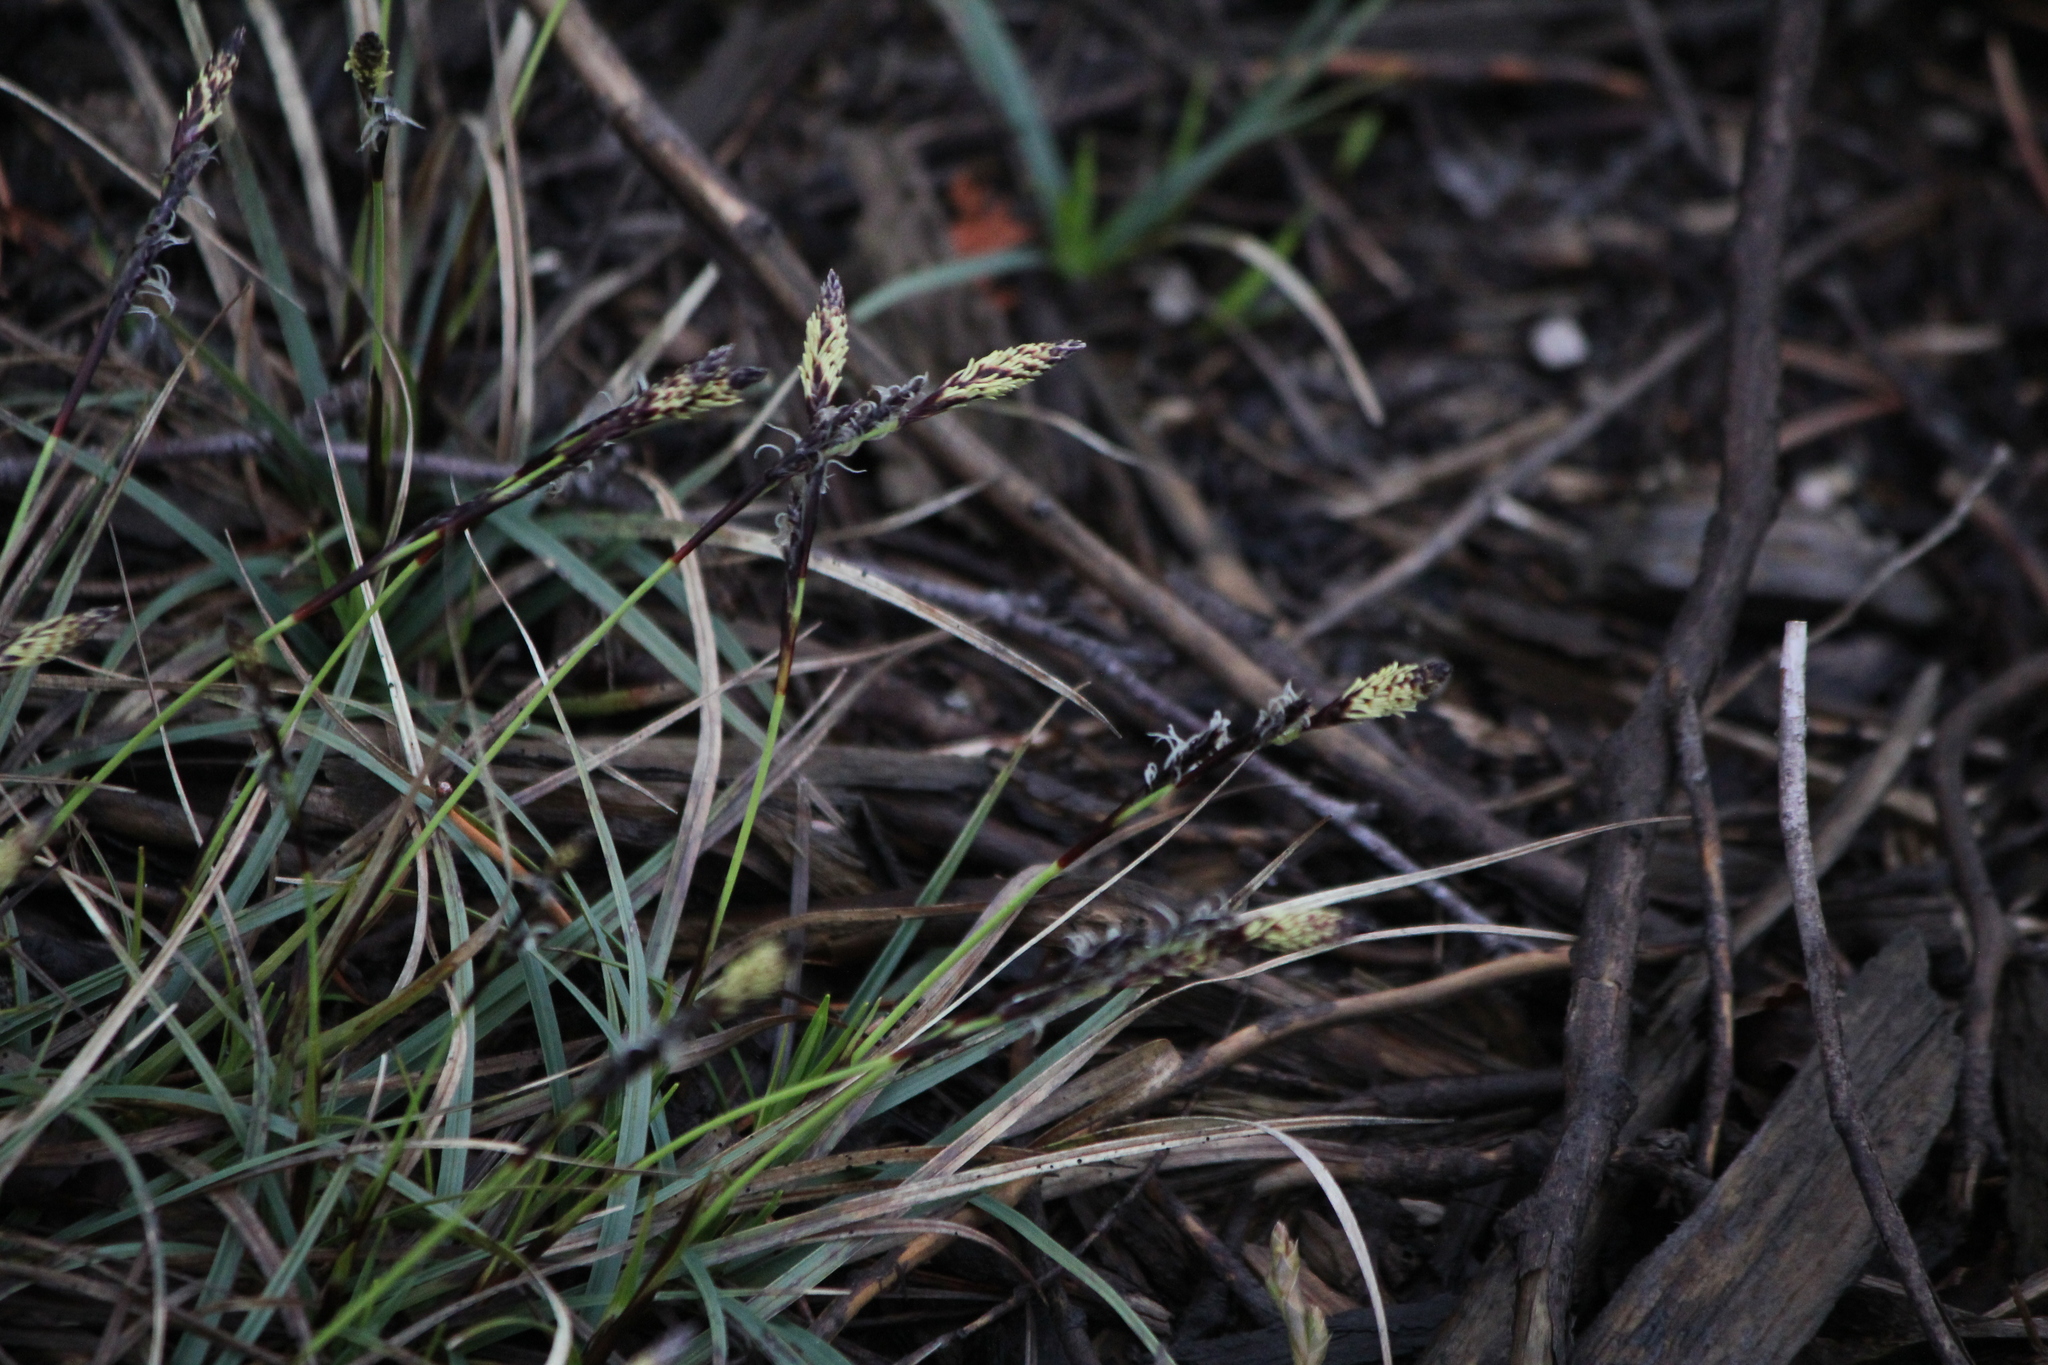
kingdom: Plantae
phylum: Tracheophyta
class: Liliopsida
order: Poales
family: Cyperaceae
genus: Carex
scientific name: Carex richardsonii
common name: Prairie hummock sedge
